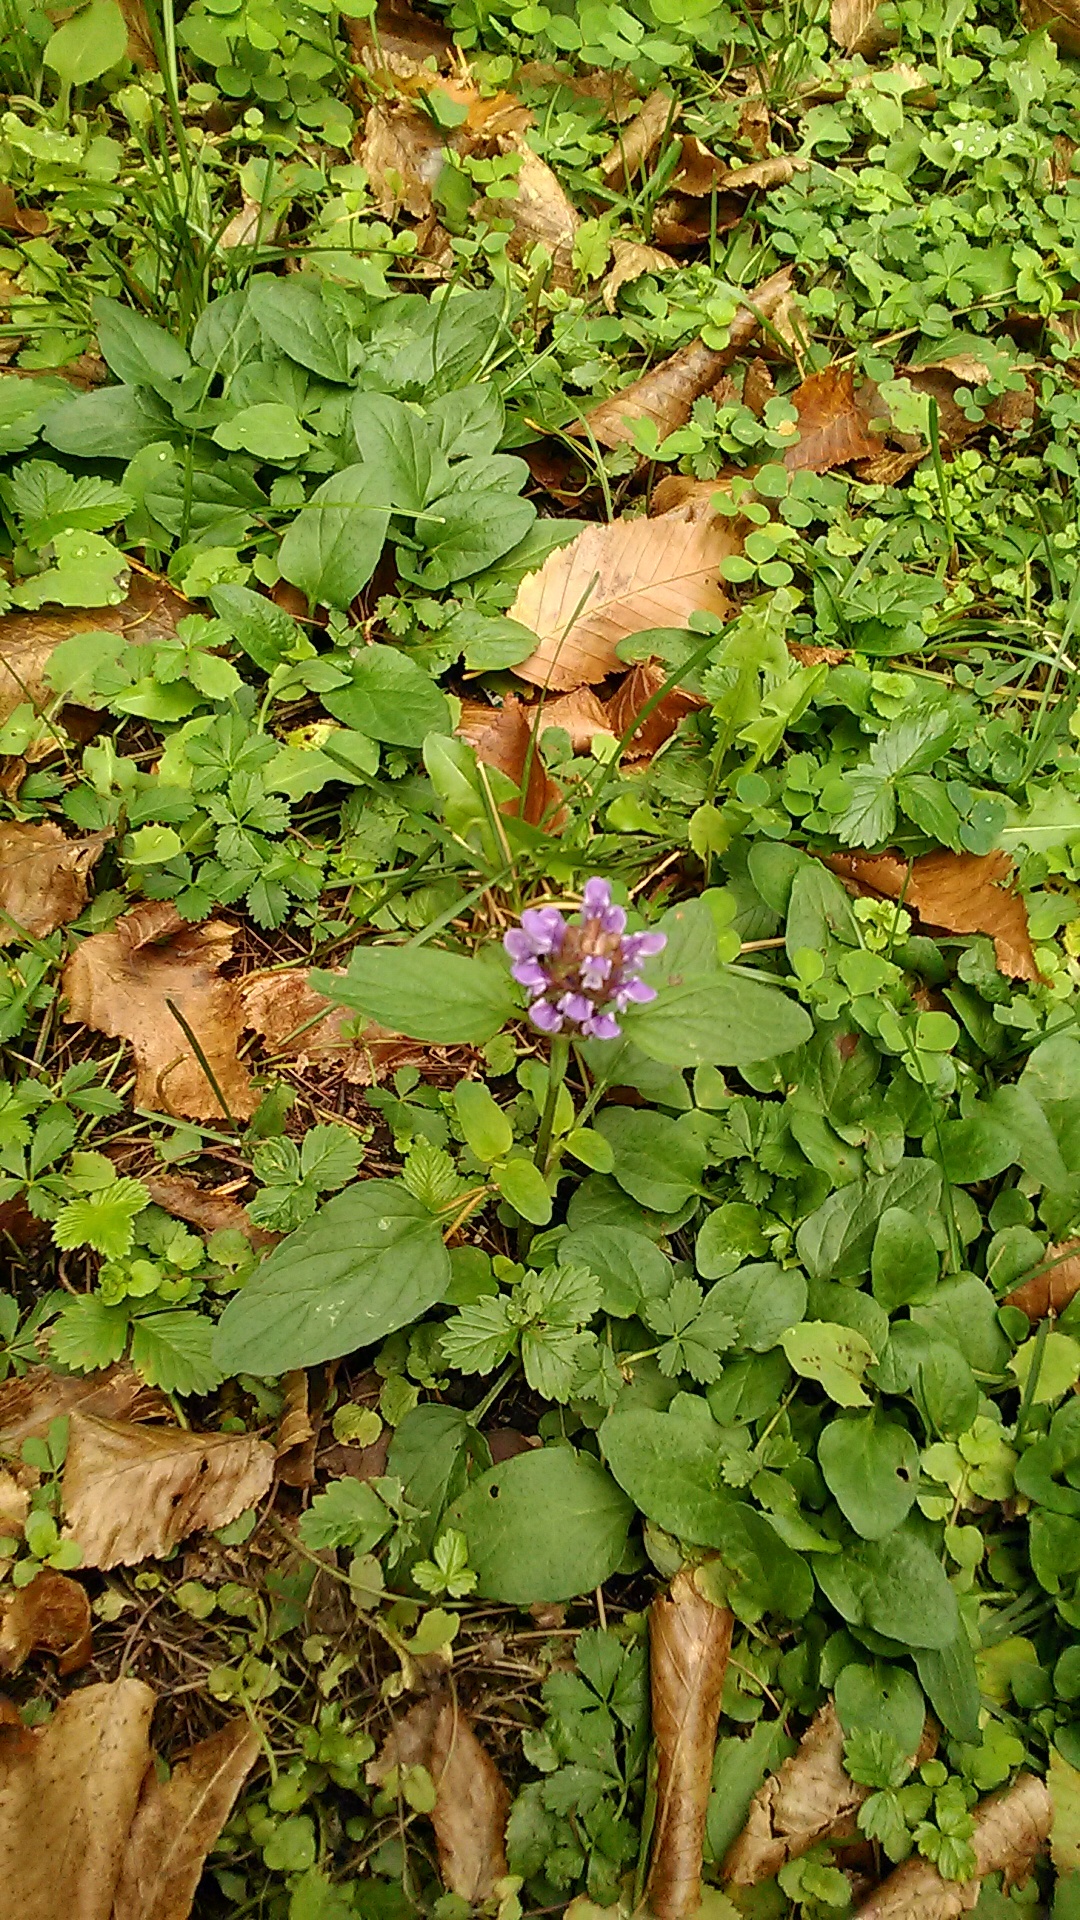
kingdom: Plantae
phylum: Tracheophyta
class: Magnoliopsida
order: Lamiales
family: Lamiaceae
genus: Prunella
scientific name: Prunella vulgaris
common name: Heal-all
